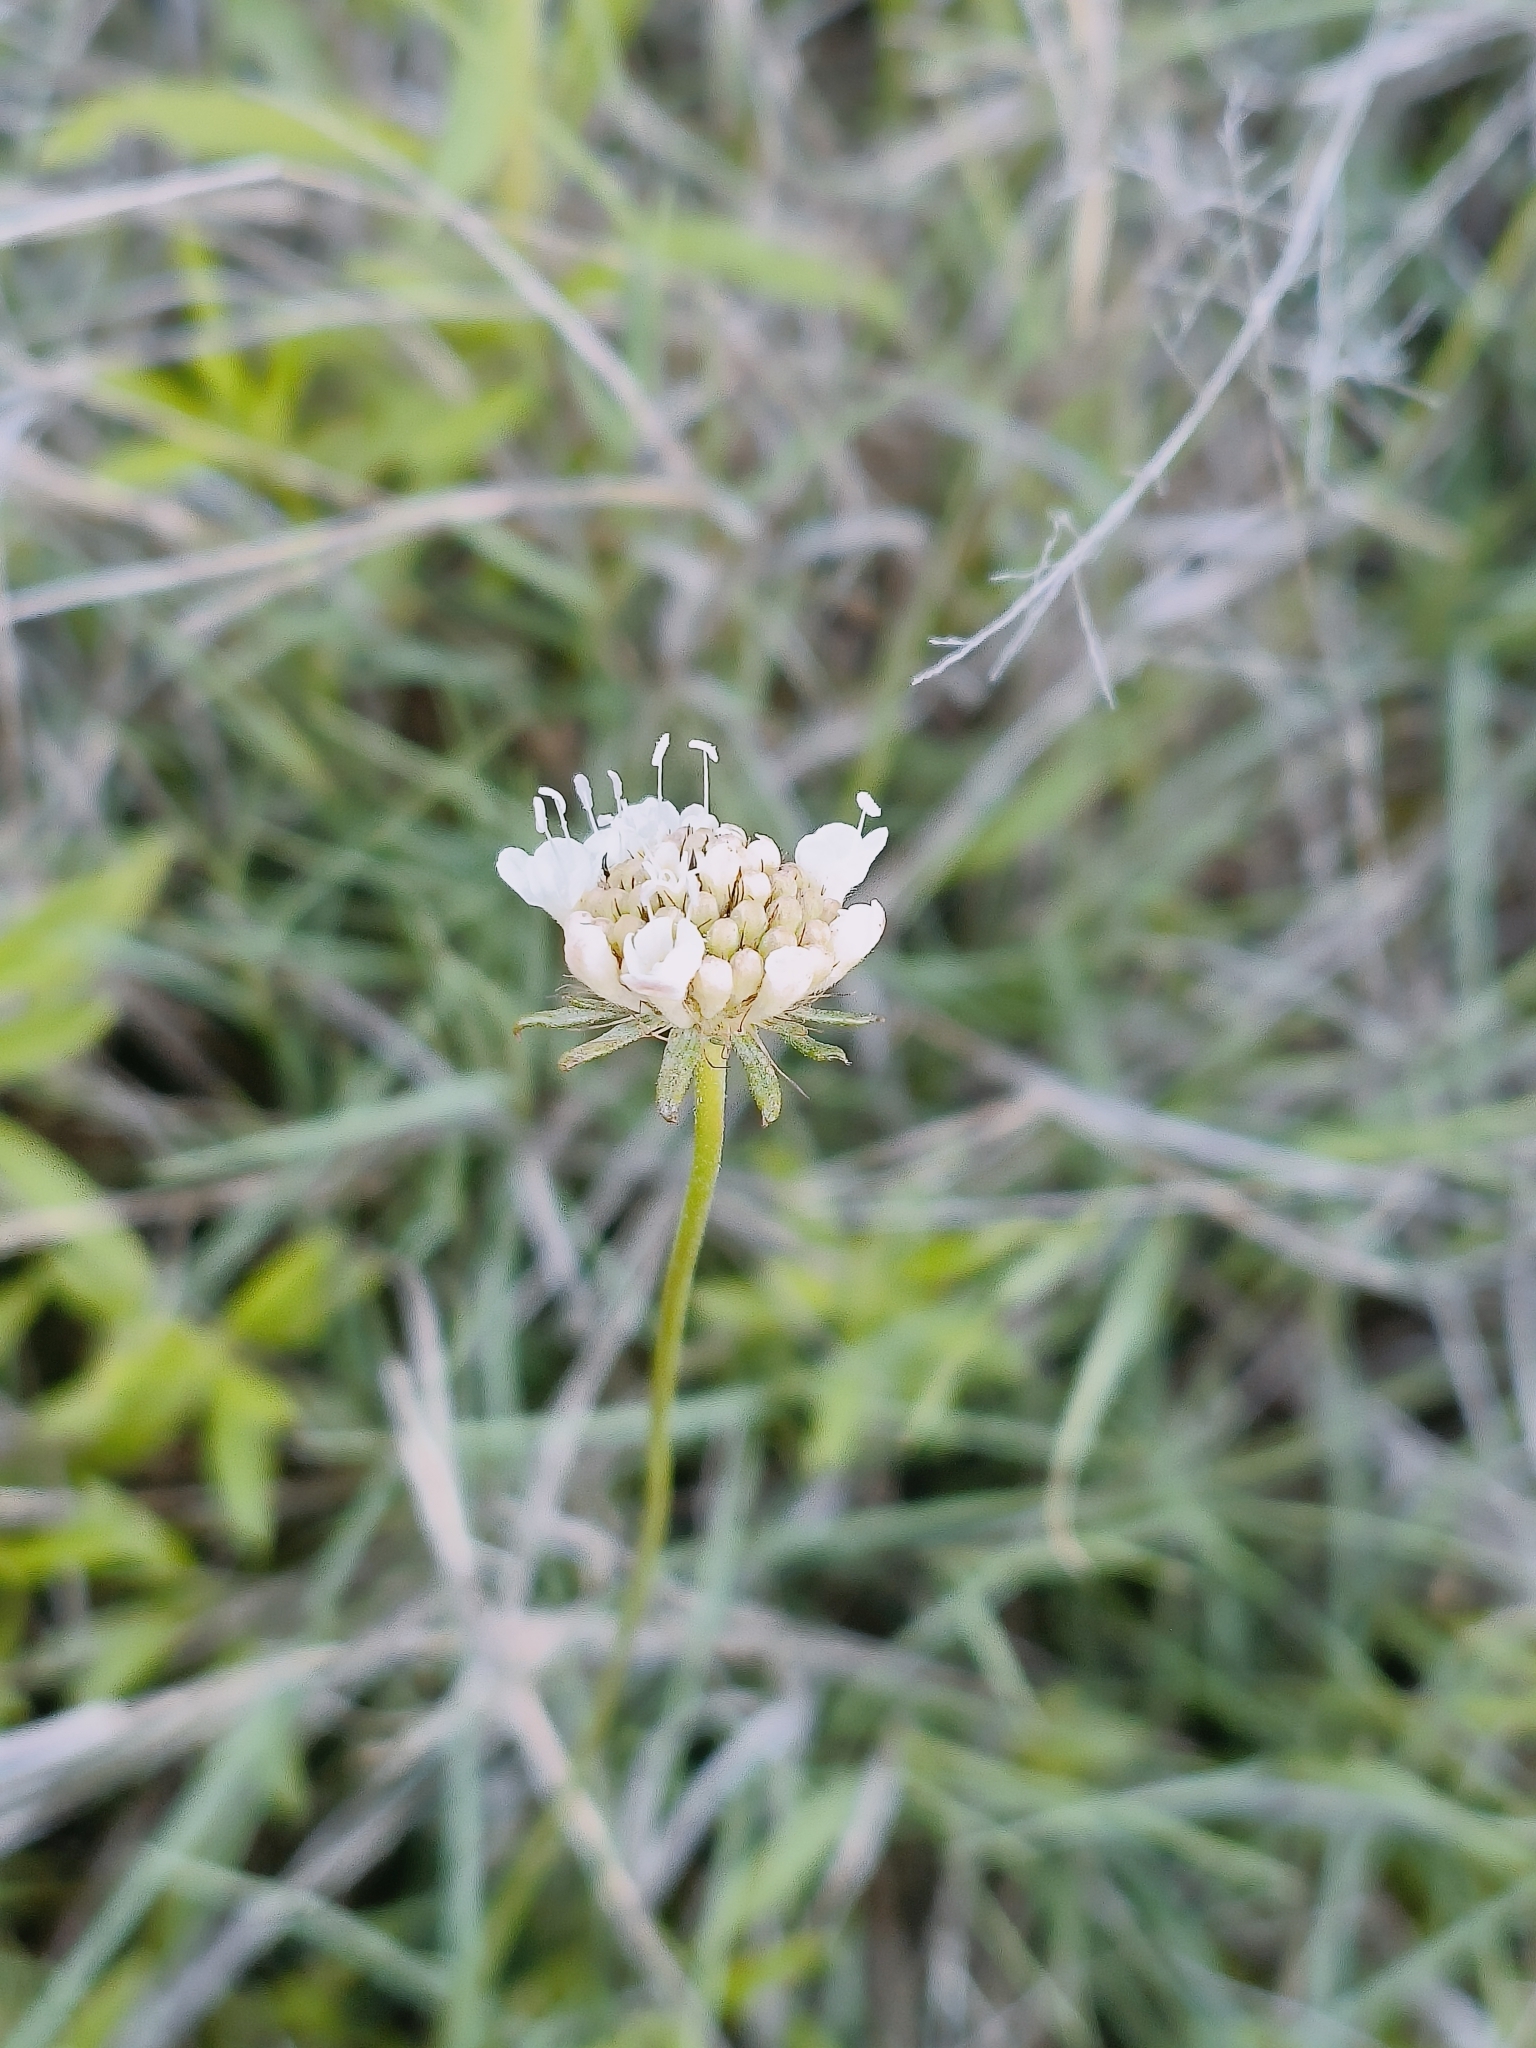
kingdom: Plantae
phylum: Tracheophyta
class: Magnoliopsida
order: Dipsacales
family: Caprifoliaceae
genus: Scabiosa
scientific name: Scabiosa columbaria
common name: Small scabious
